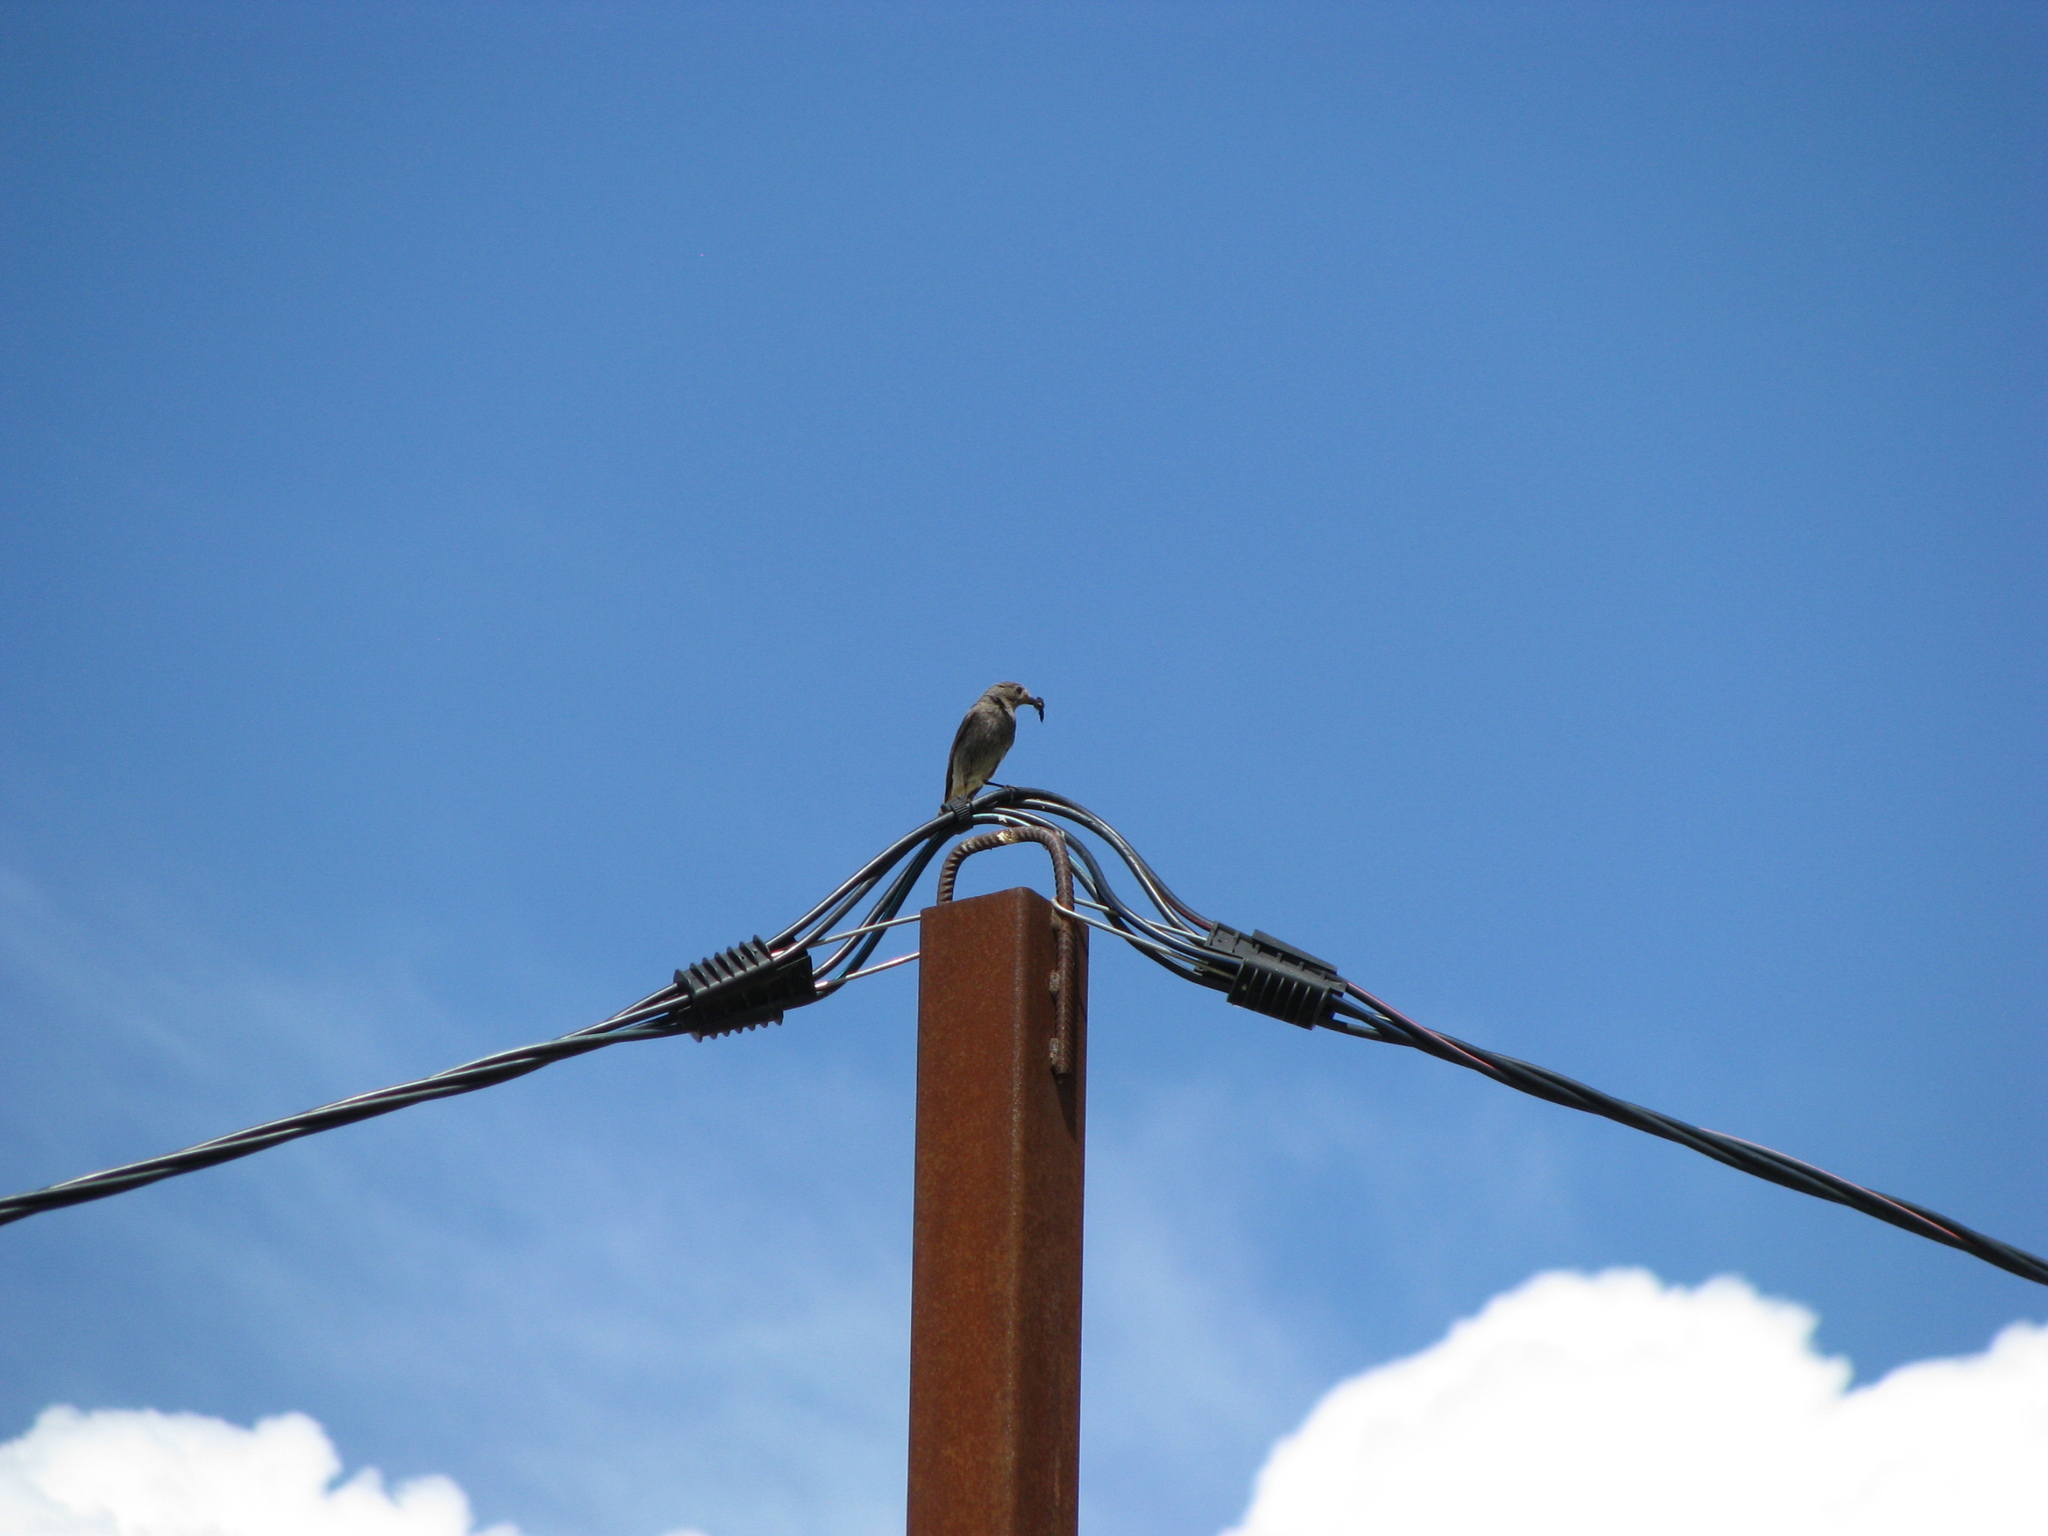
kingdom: Animalia
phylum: Chordata
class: Aves
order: Passeriformes
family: Muscicapidae
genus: Phoenicurus
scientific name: Phoenicurus ochruros
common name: Black redstart
